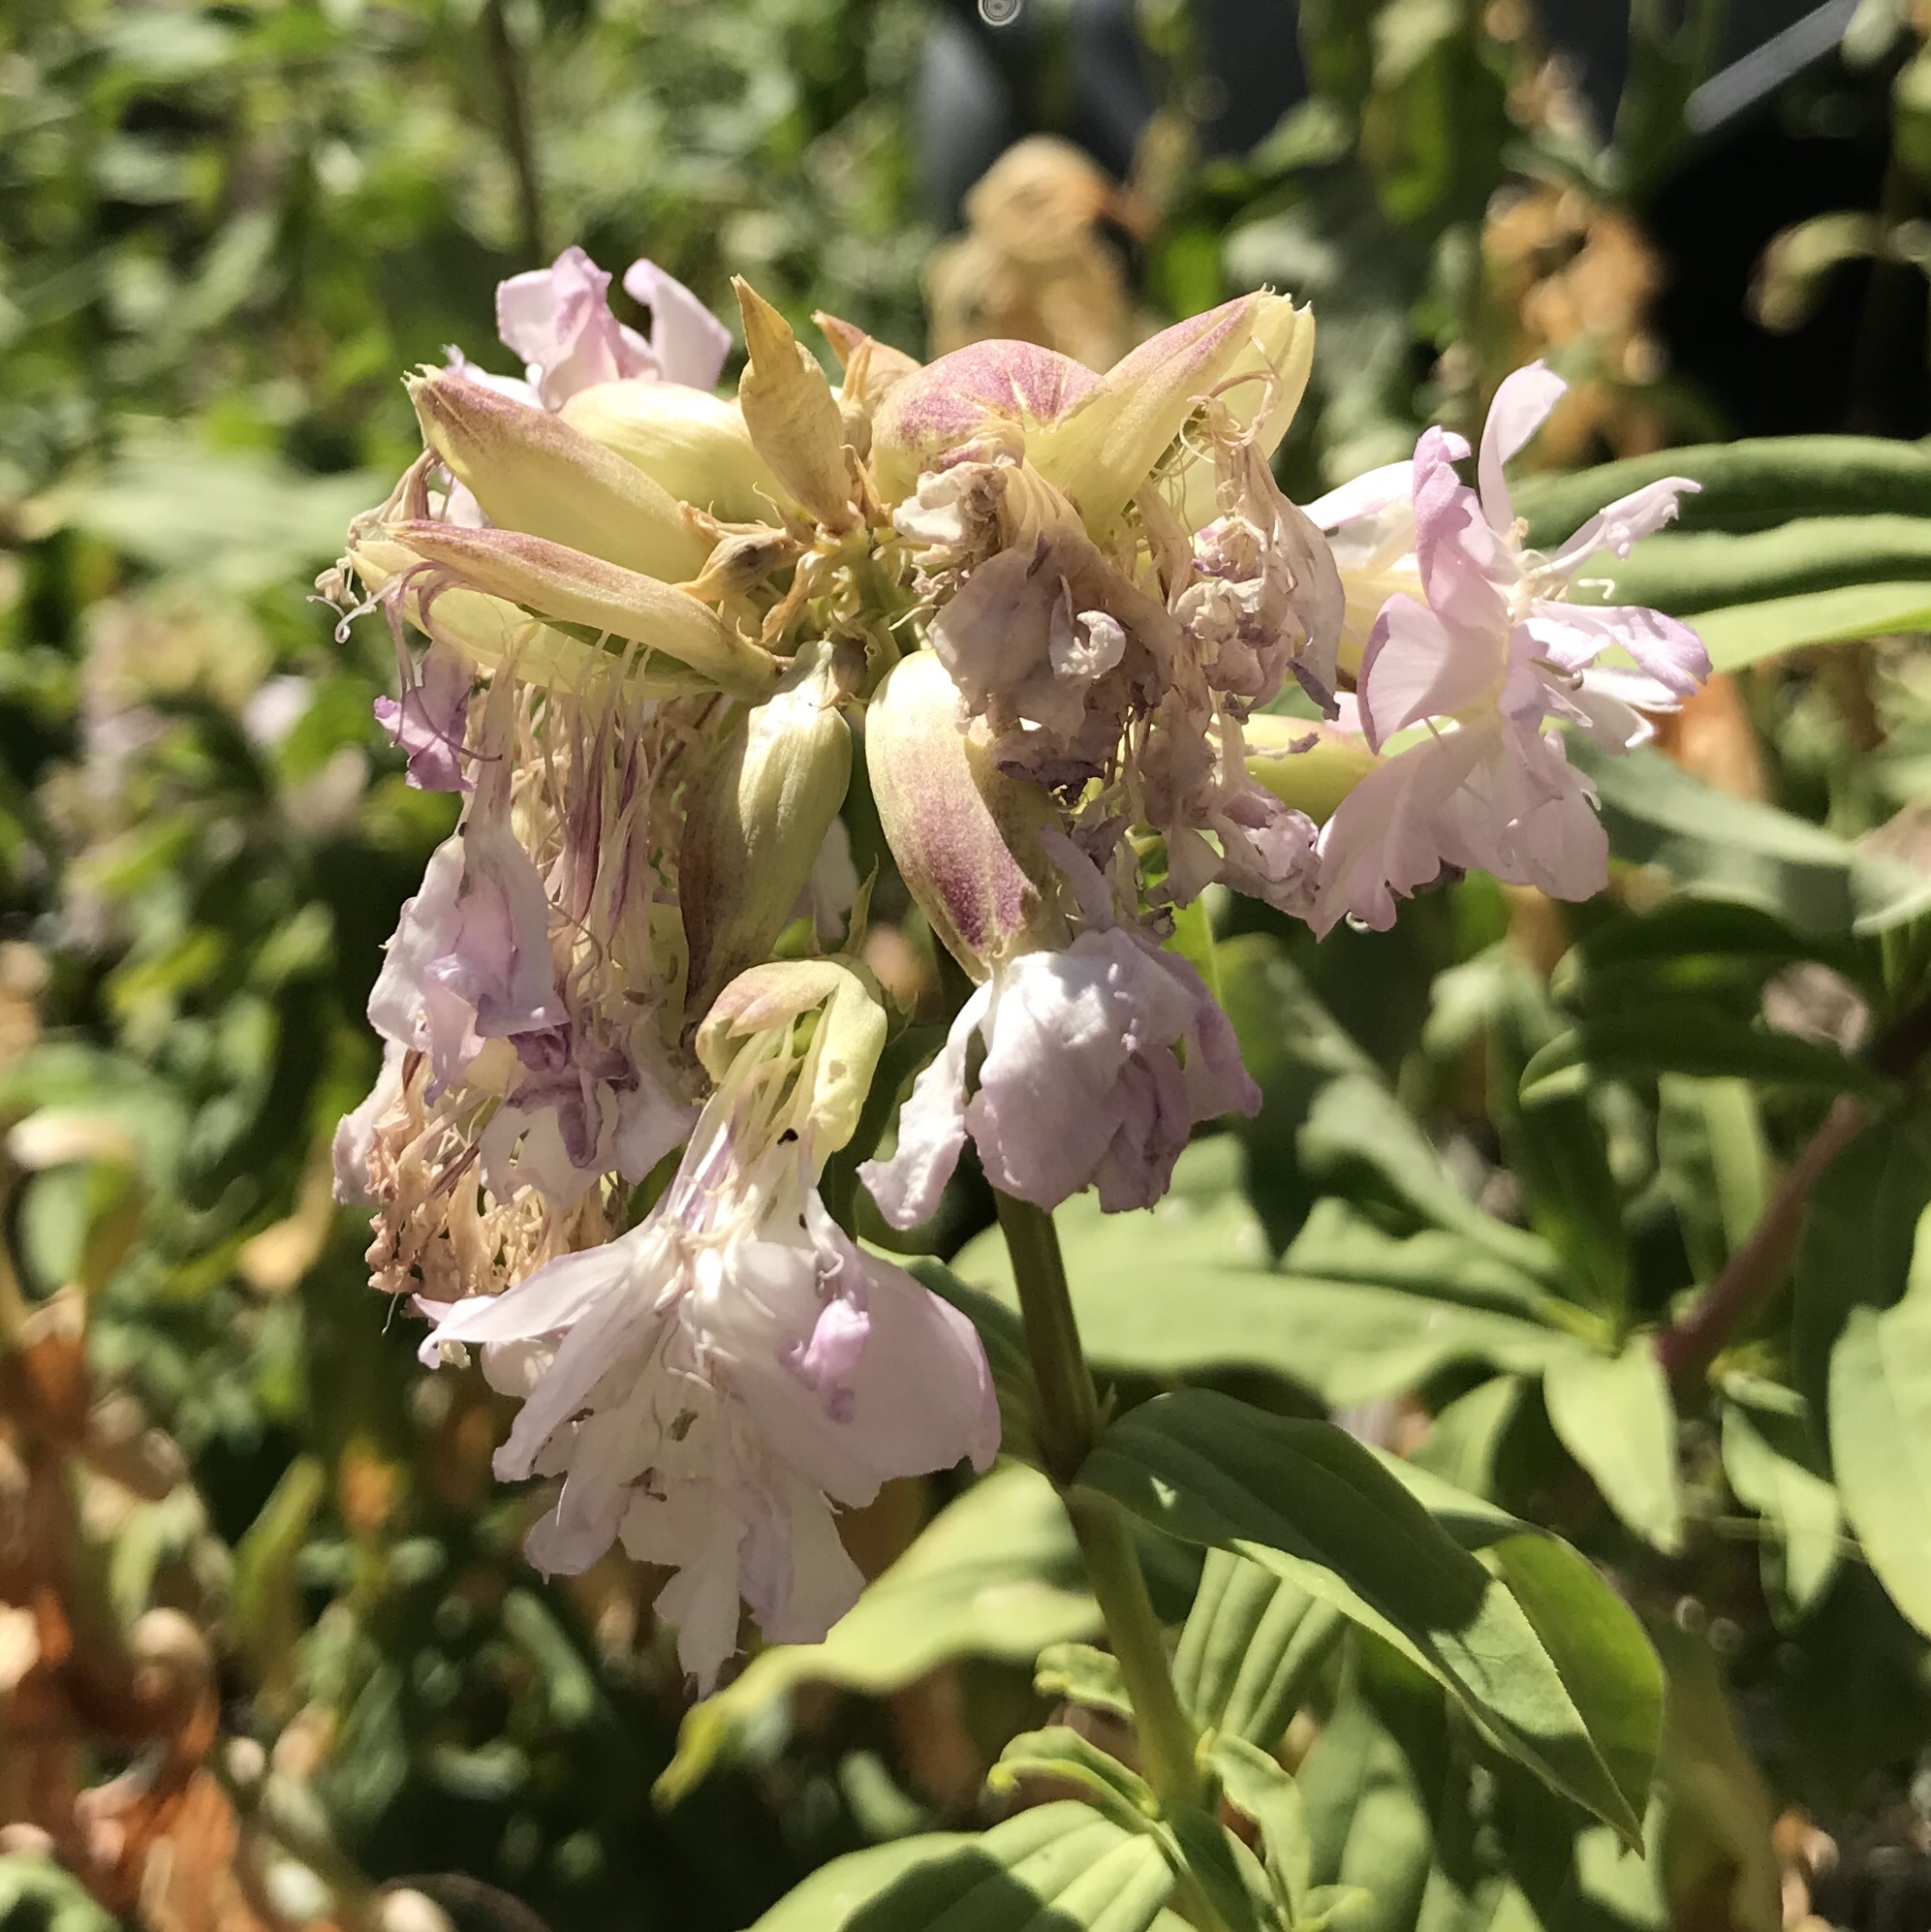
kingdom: Plantae
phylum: Tracheophyta
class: Magnoliopsida
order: Caryophyllales
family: Caryophyllaceae
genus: Saponaria
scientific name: Saponaria officinalis
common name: Soapwort
